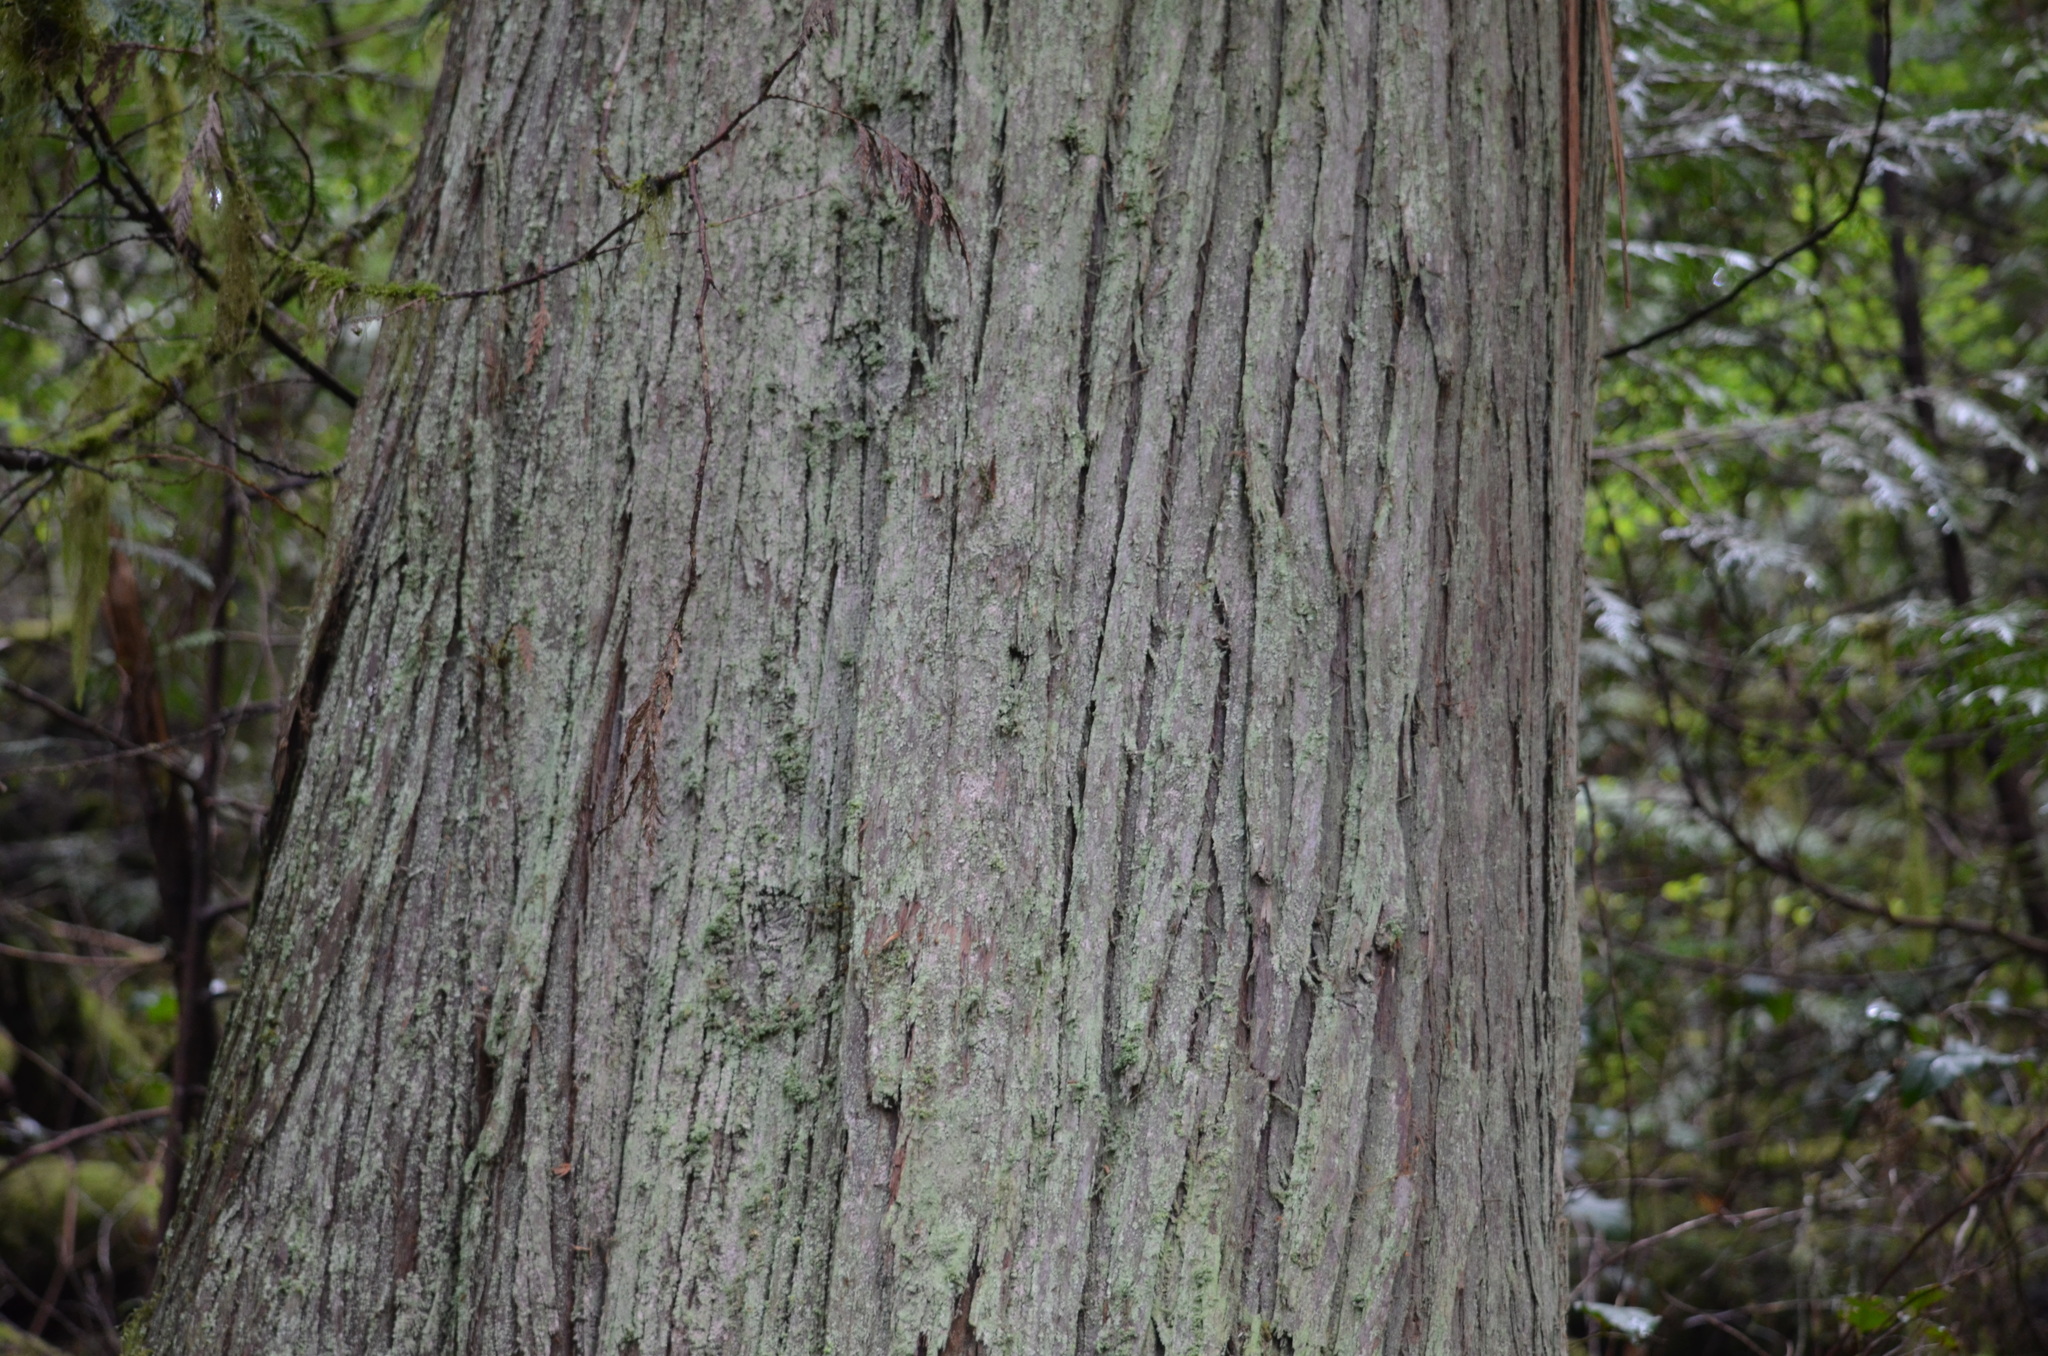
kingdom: Plantae
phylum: Tracheophyta
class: Pinopsida
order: Pinales
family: Cupressaceae
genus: Thuja
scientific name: Thuja plicata
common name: Western red-cedar
